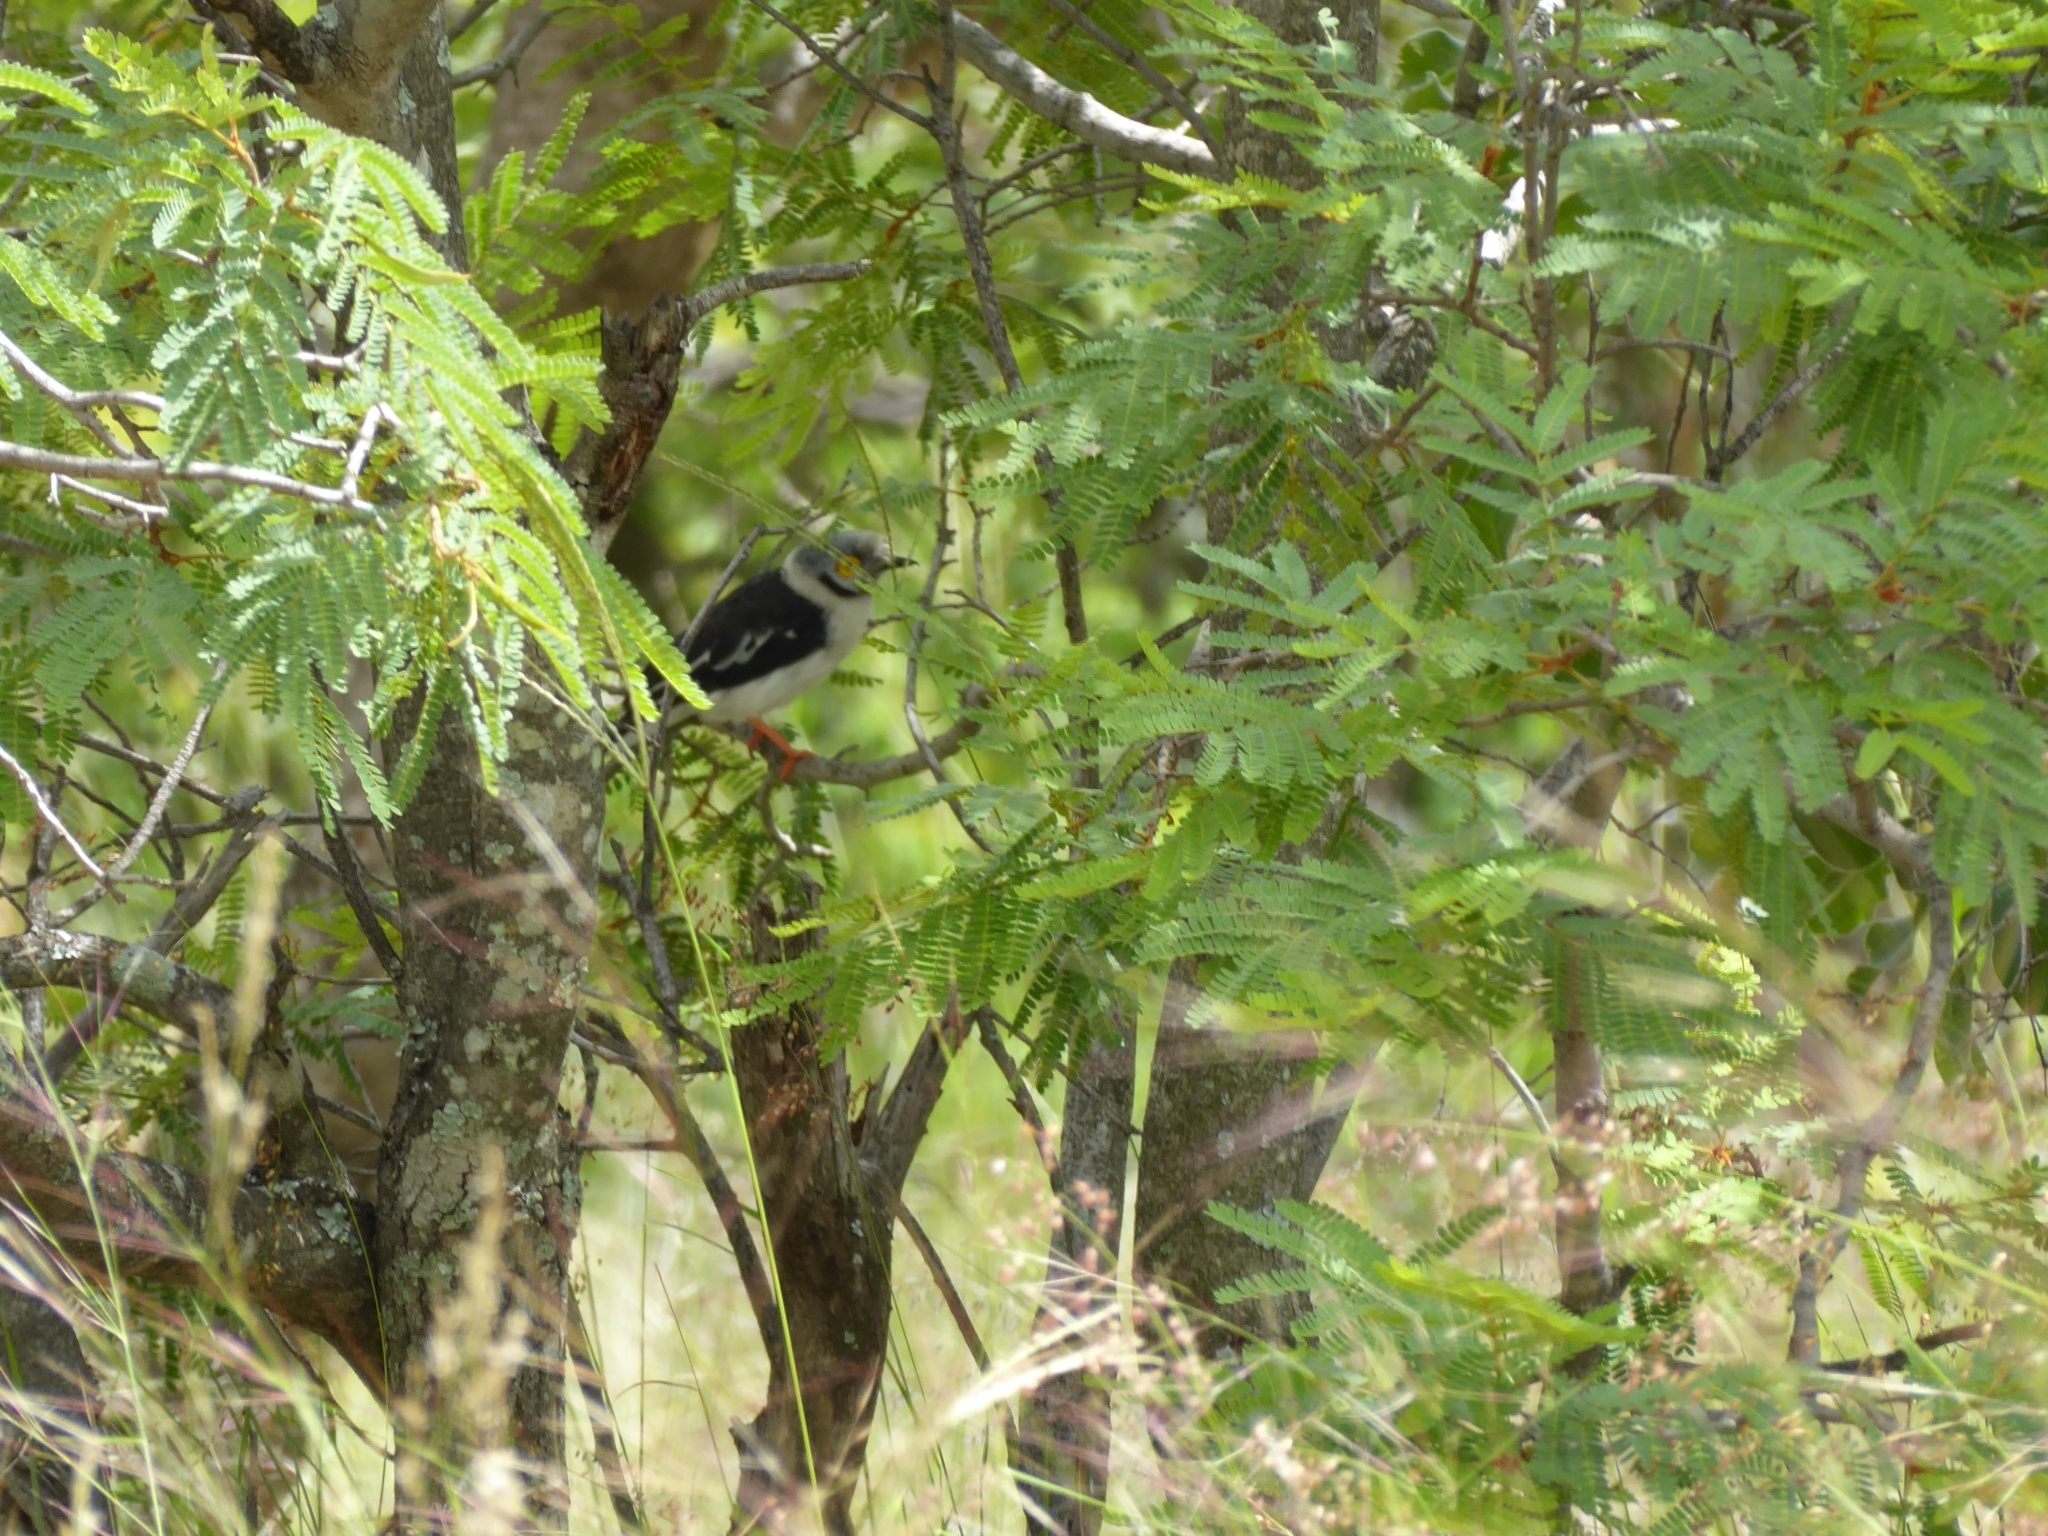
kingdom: Animalia
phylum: Chordata
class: Aves
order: Passeriformes
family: Prionopidae
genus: Prionops
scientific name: Prionops plumatus
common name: White-crested helmetshrike
